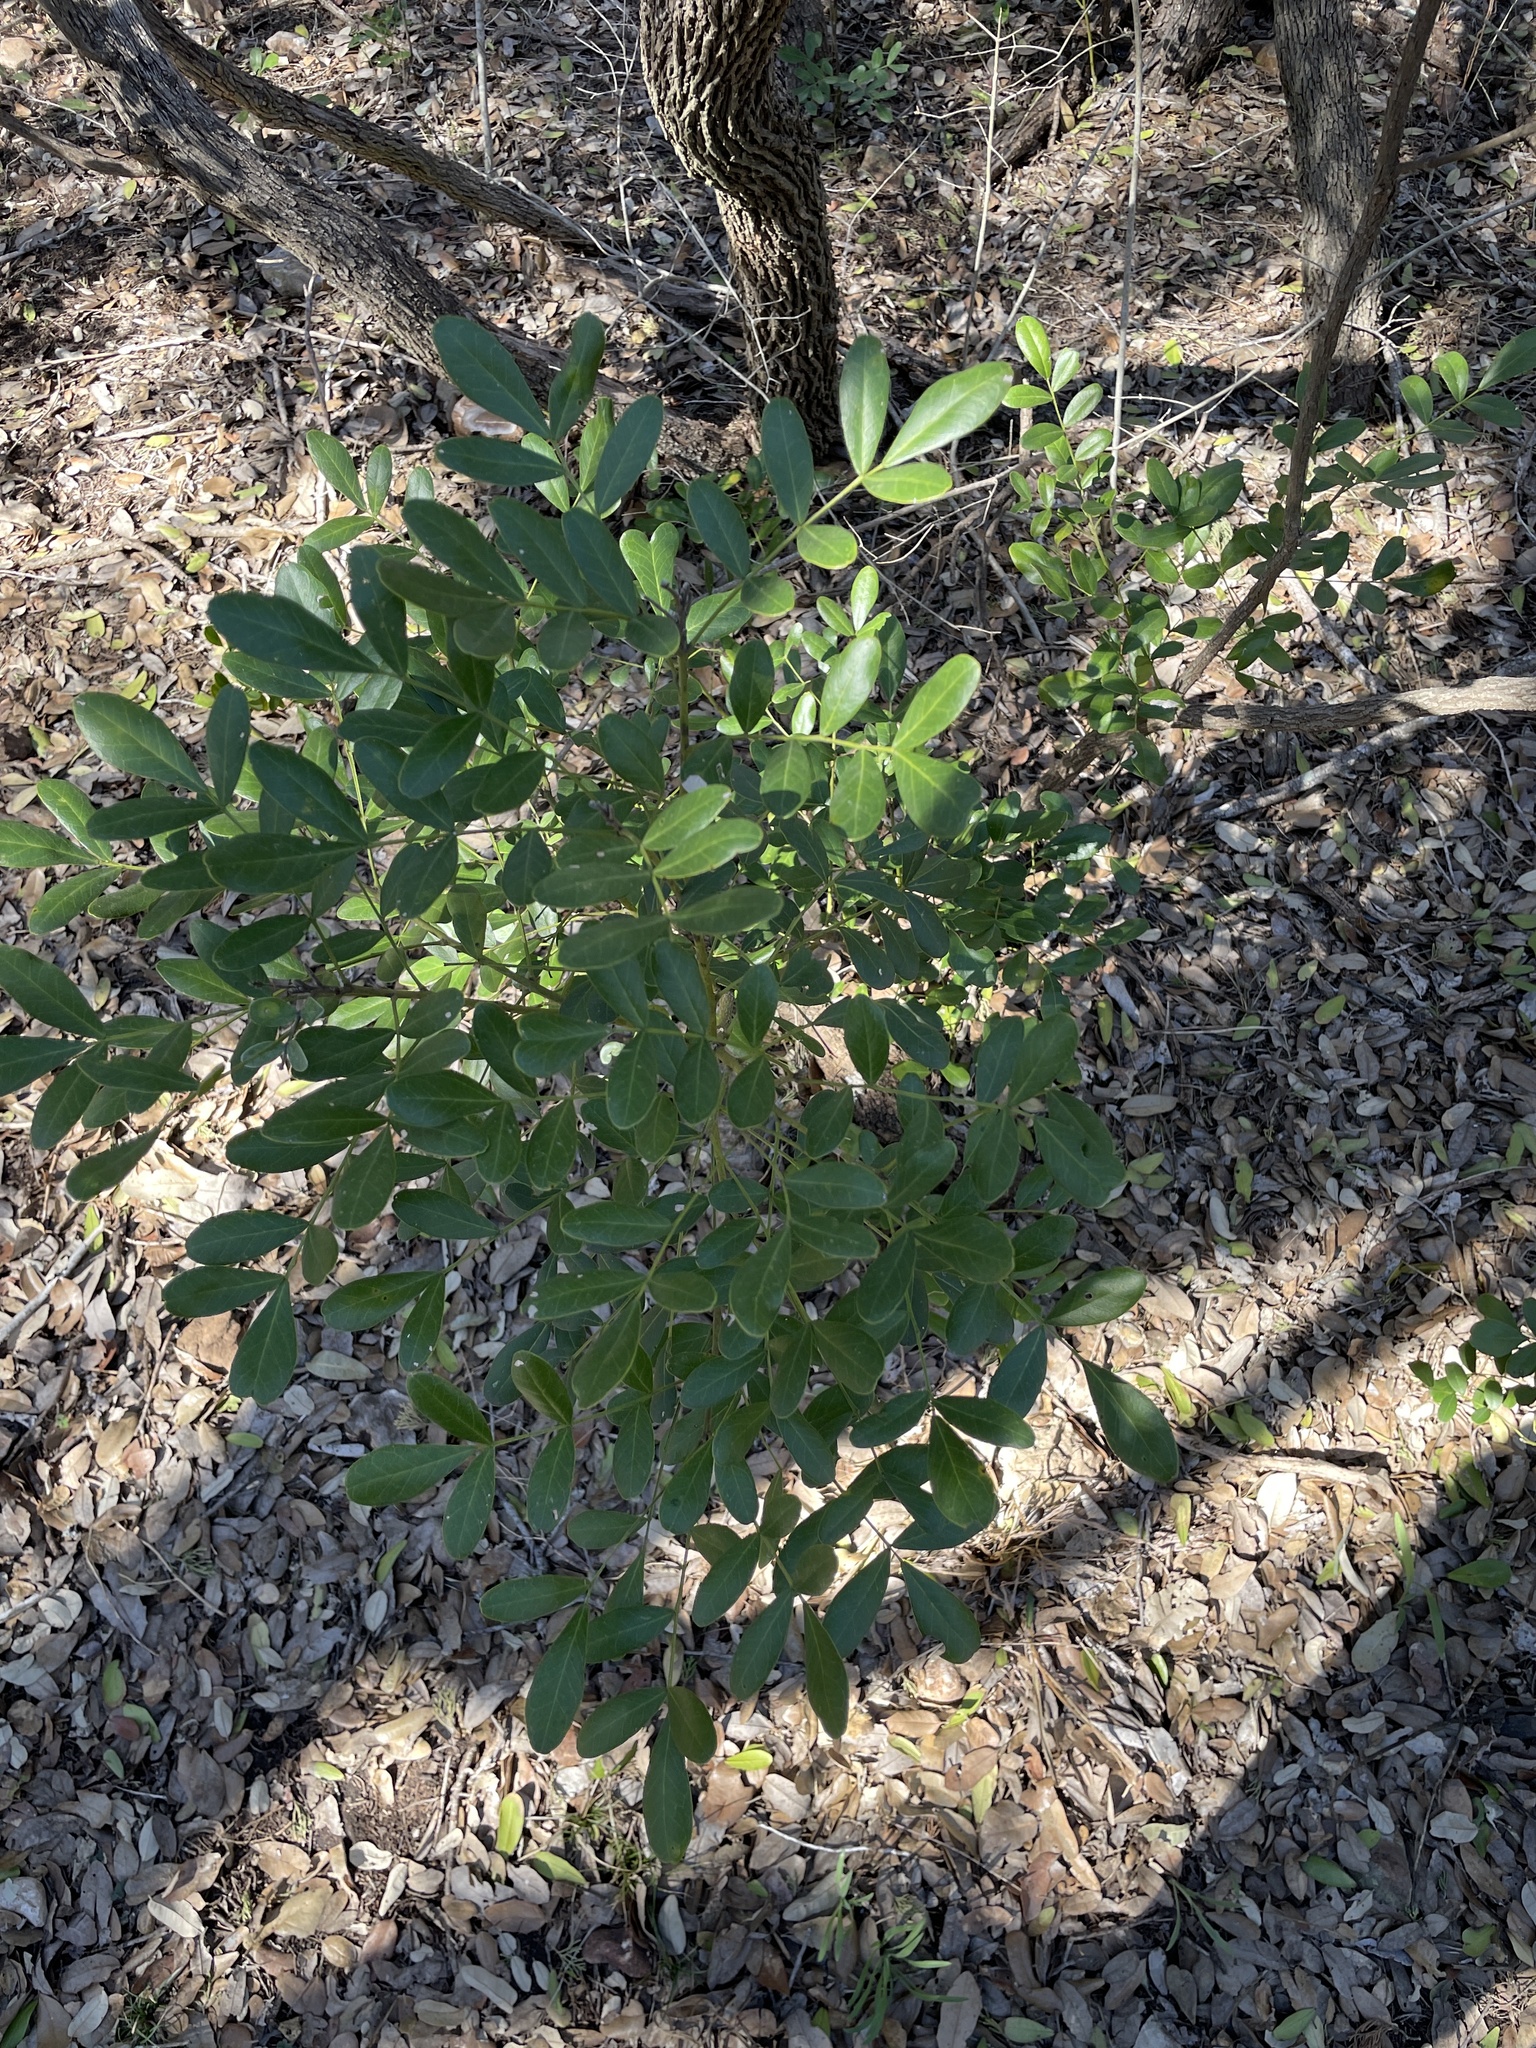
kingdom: Plantae
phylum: Tracheophyta
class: Magnoliopsida
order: Fabales
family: Fabaceae
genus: Dermatophyllum
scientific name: Dermatophyllum secundiflorum
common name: Texas-mountain-laurel
